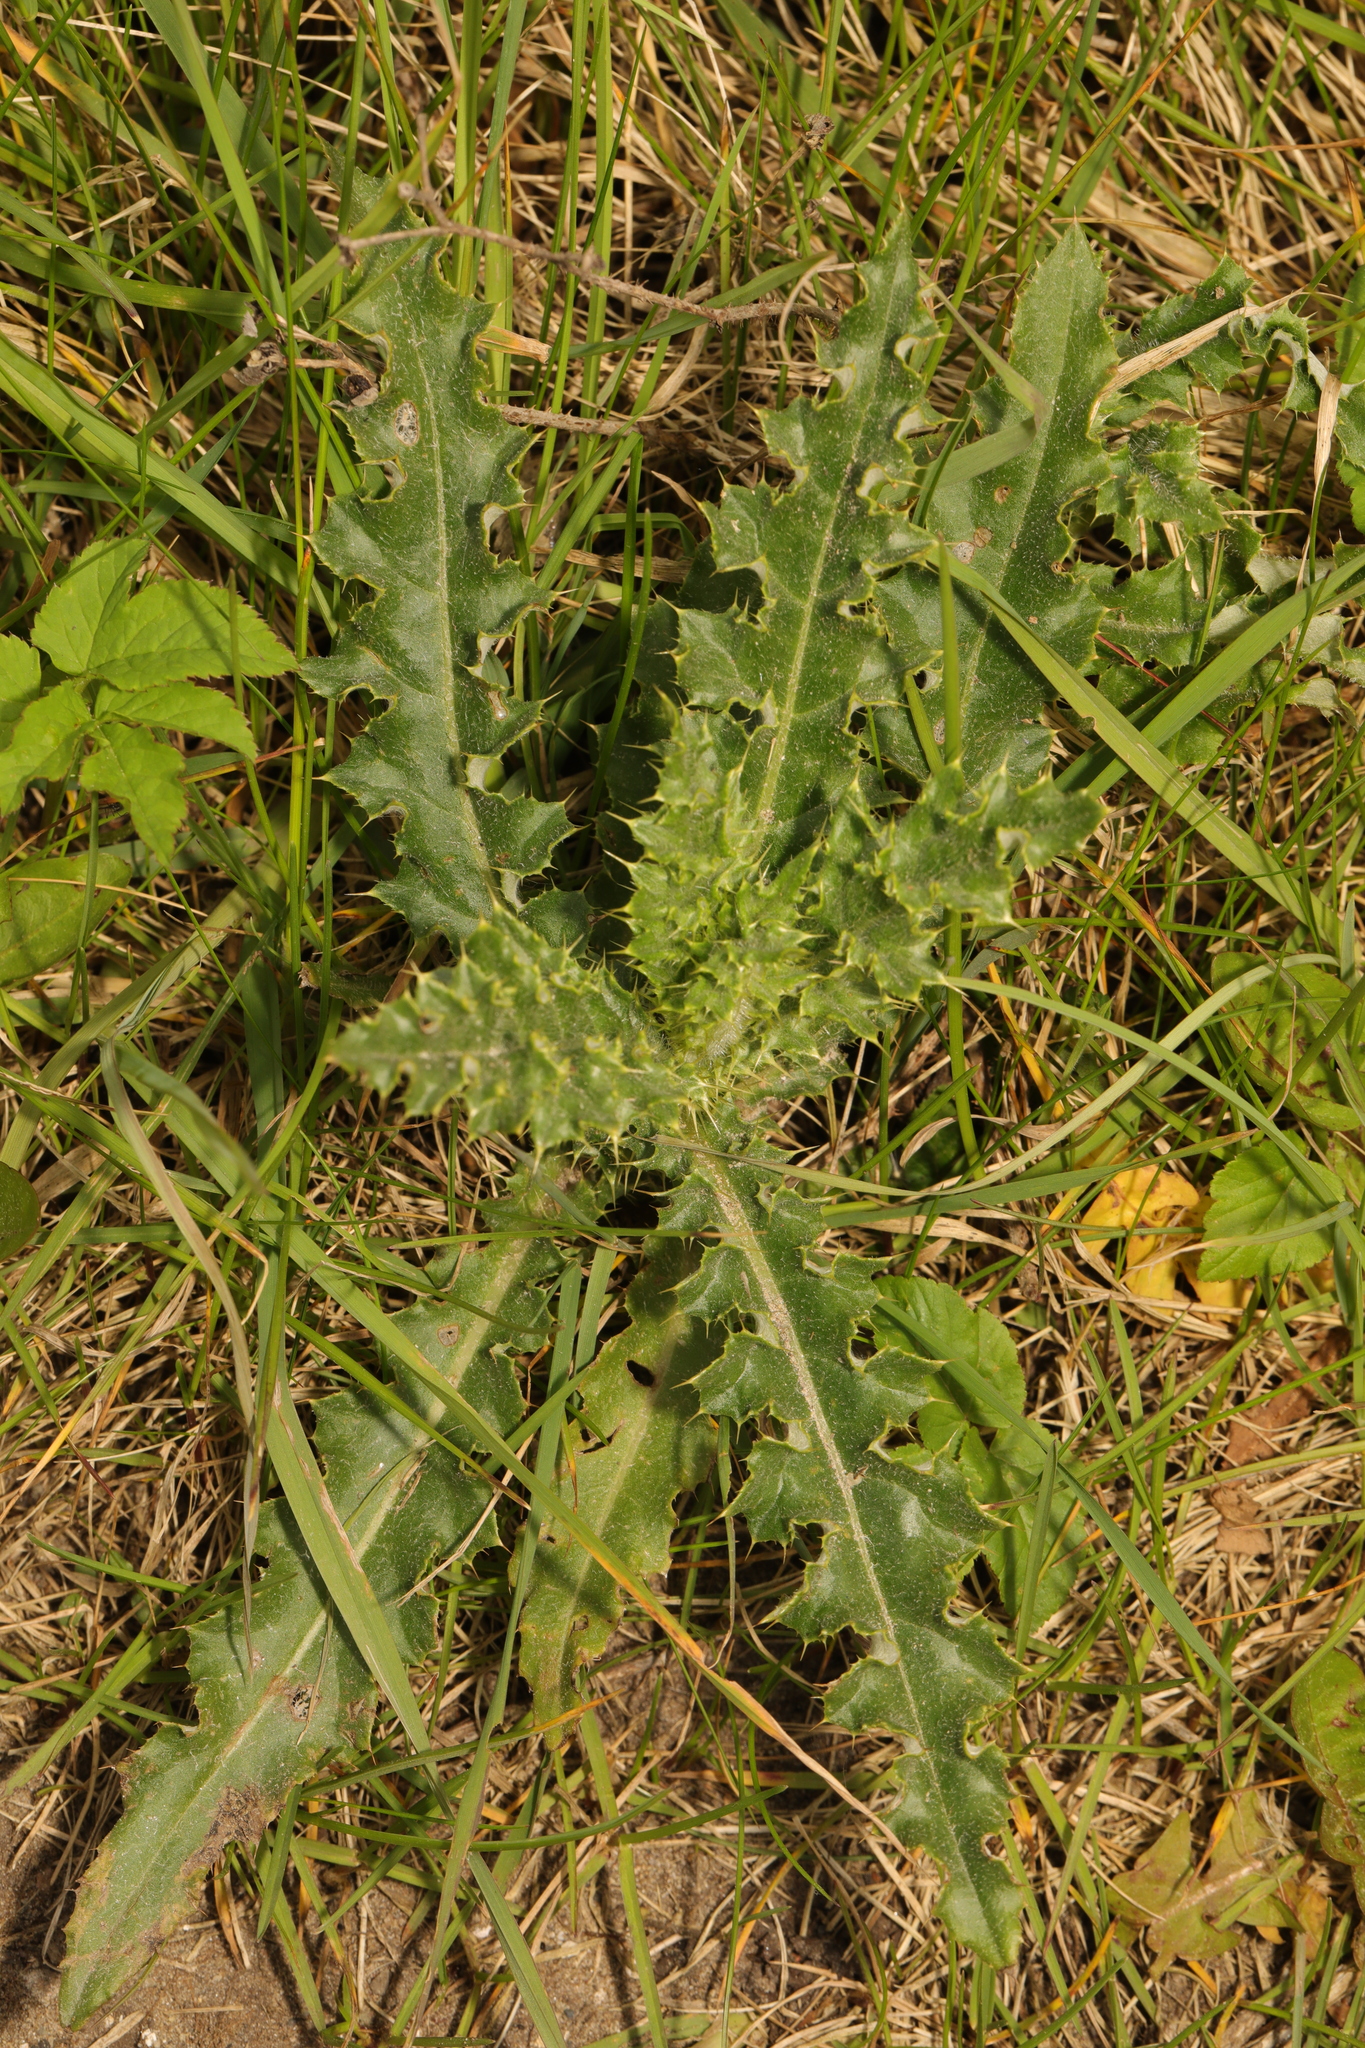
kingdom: Plantae
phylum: Tracheophyta
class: Magnoliopsida
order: Asterales
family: Asteraceae
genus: Cirsium
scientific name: Cirsium arvense
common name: Creeping thistle
